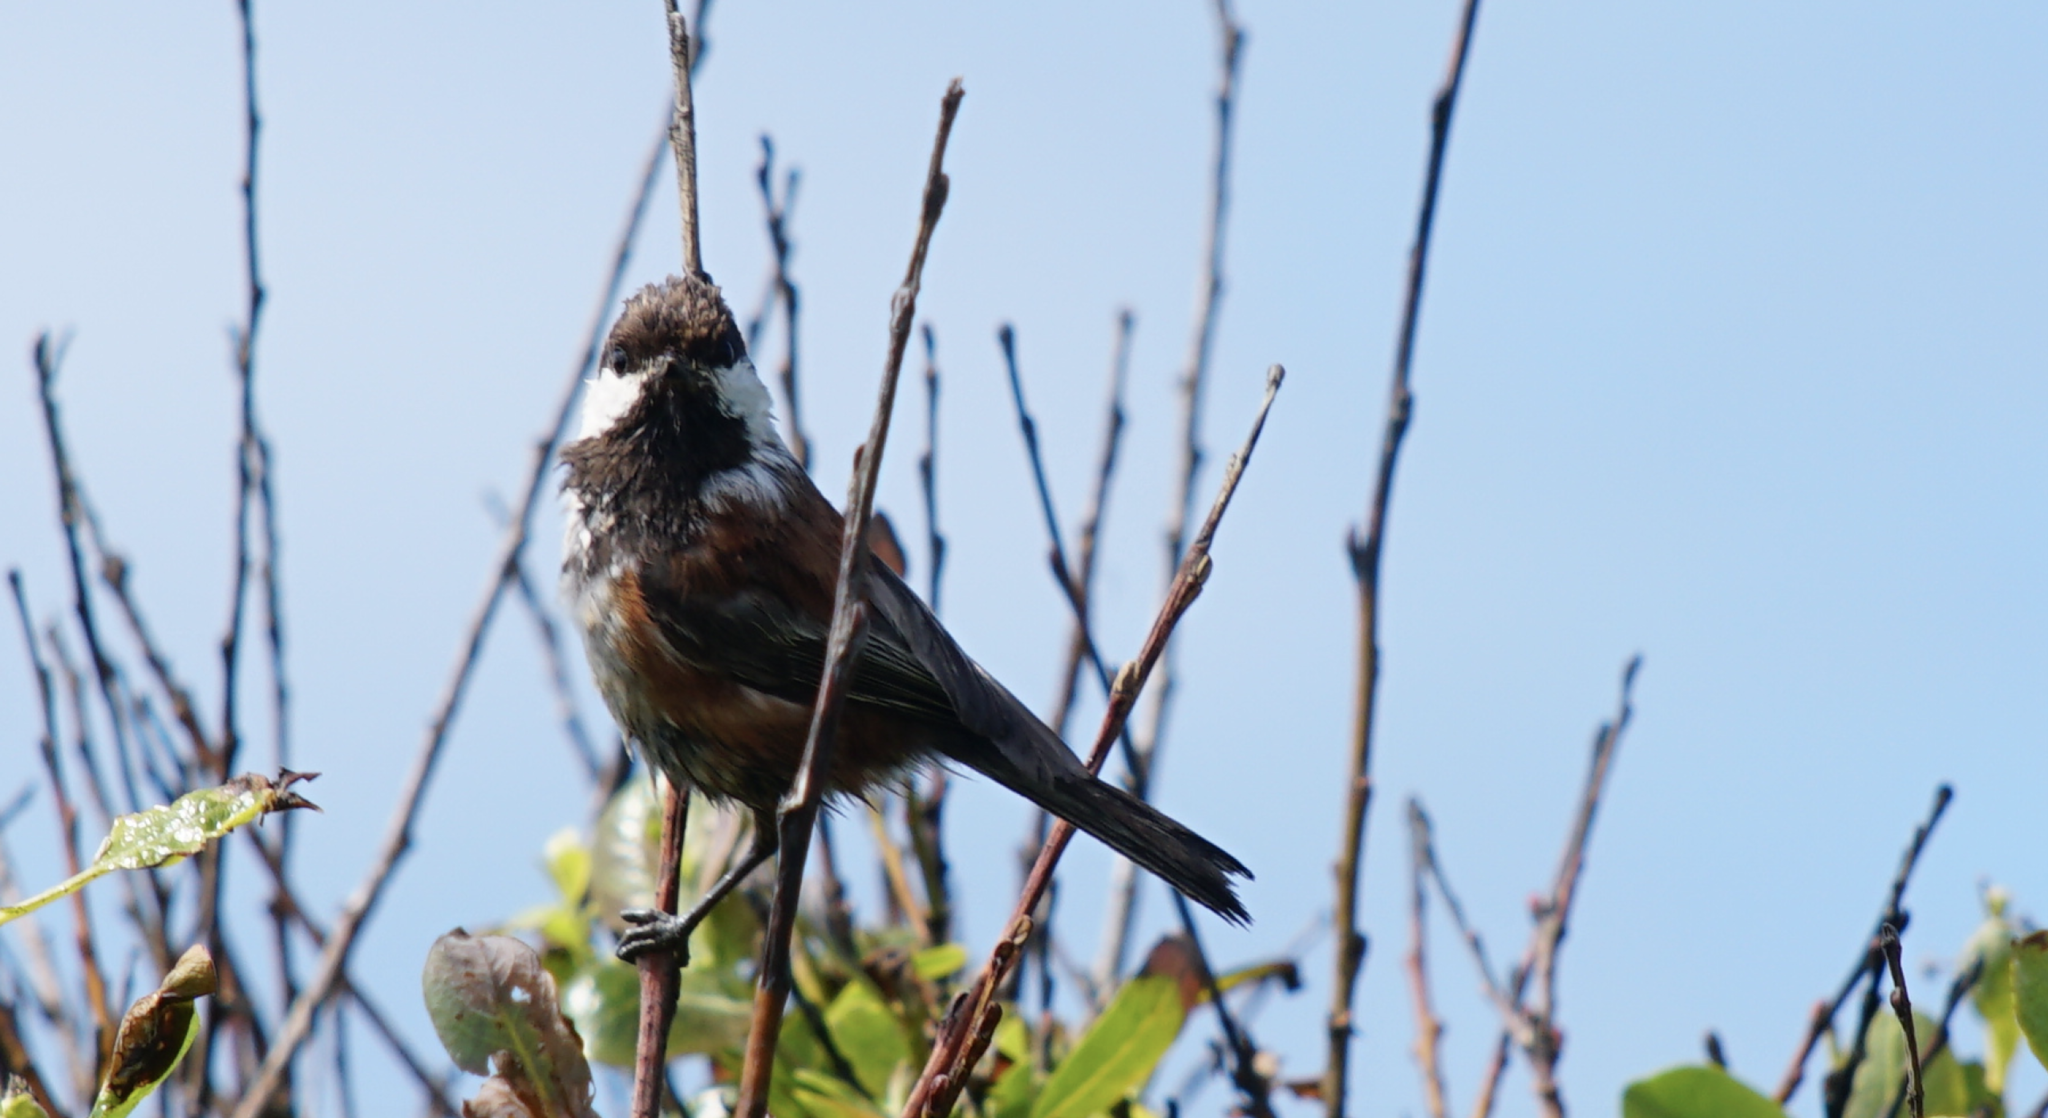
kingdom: Animalia
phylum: Chordata
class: Aves
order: Passeriformes
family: Paridae
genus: Poecile
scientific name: Poecile rufescens
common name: Chestnut-backed chickadee
